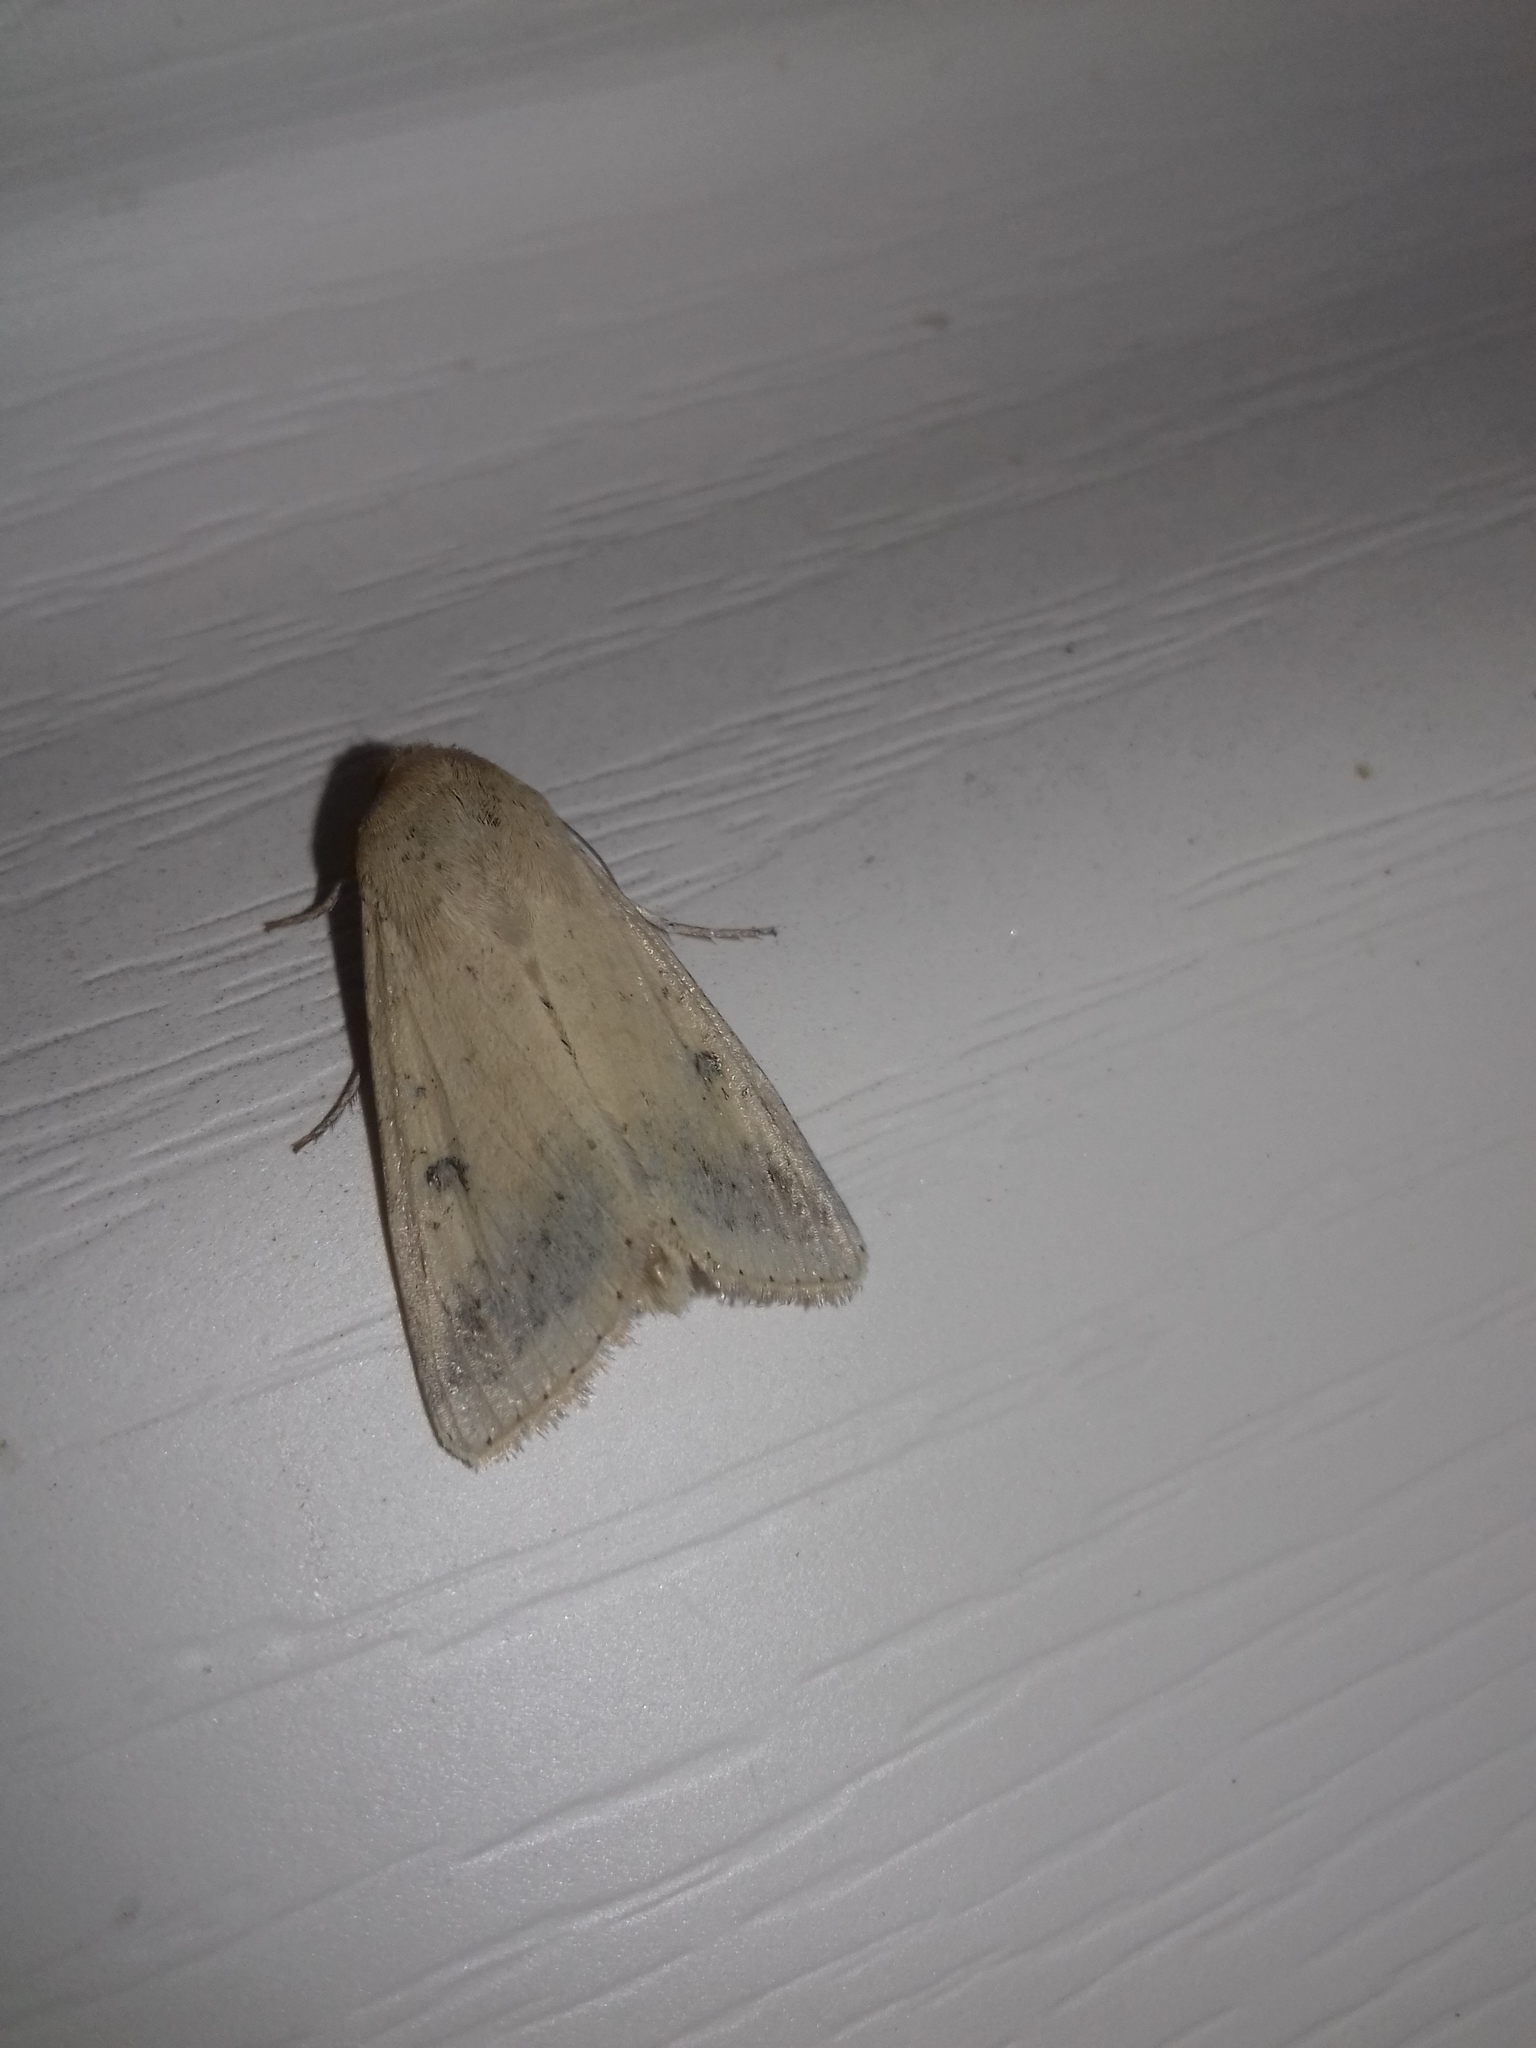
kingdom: Animalia
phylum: Arthropoda
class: Insecta
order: Lepidoptera
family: Noctuidae
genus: Helicoverpa
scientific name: Helicoverpa armigera
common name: Cotton bollworm
